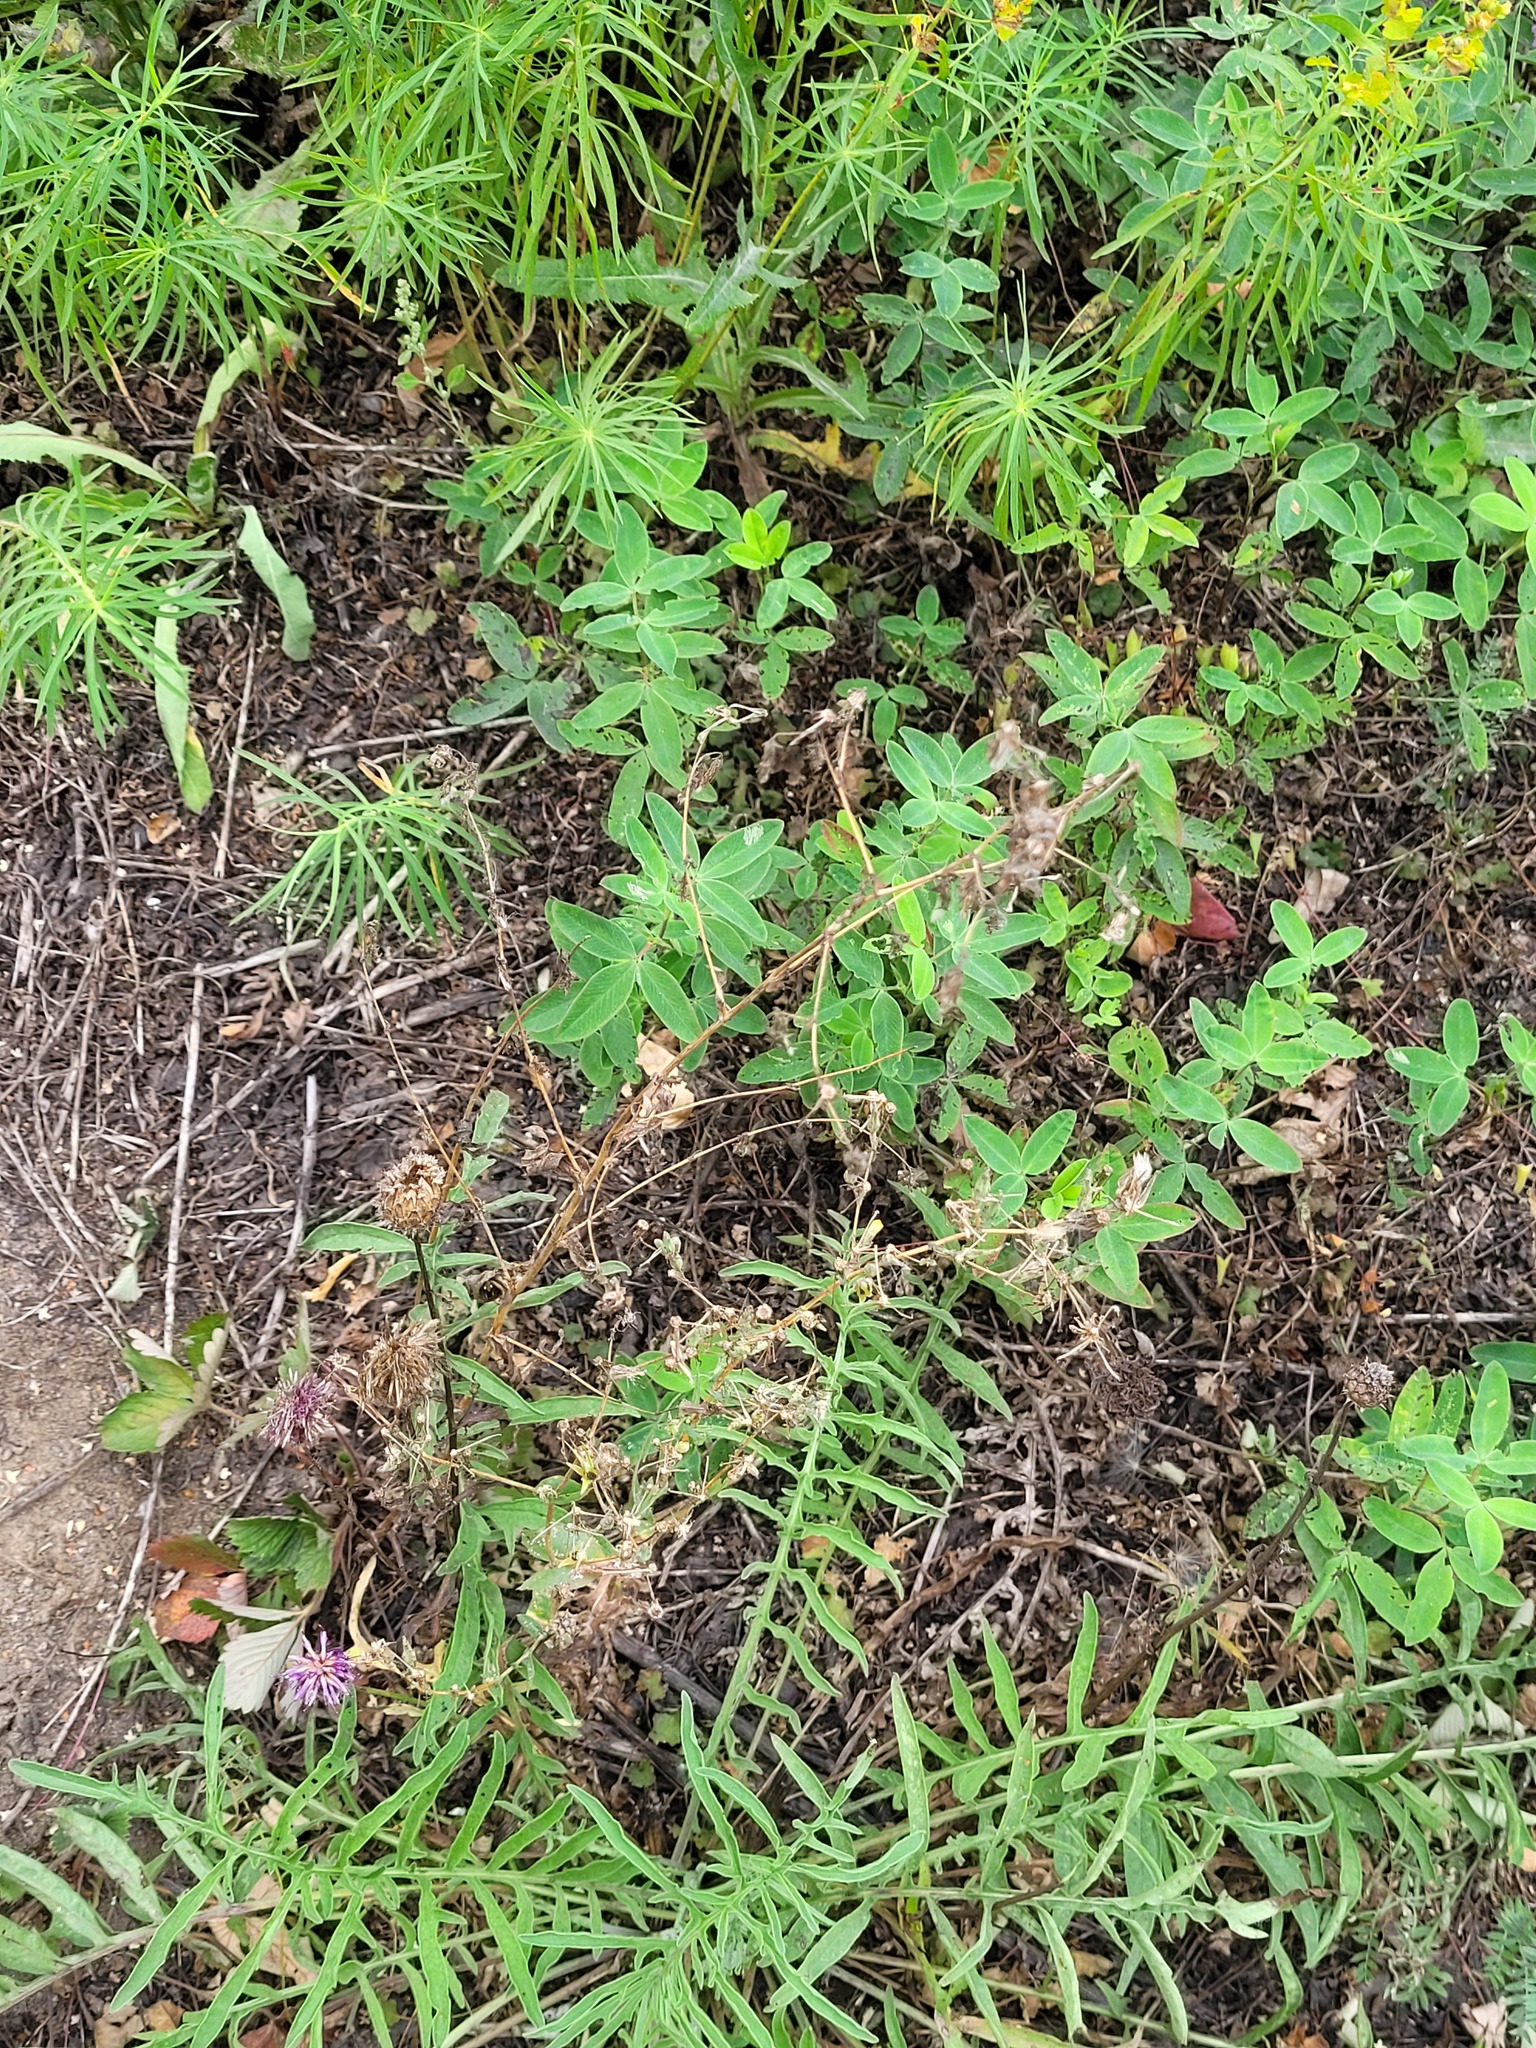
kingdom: Plantae
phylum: Tracheophyta
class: Magnoliopsida
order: Asterales
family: Asteraceae
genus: Lactuca
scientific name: Lactuca serriola
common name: Prickly lettuce
